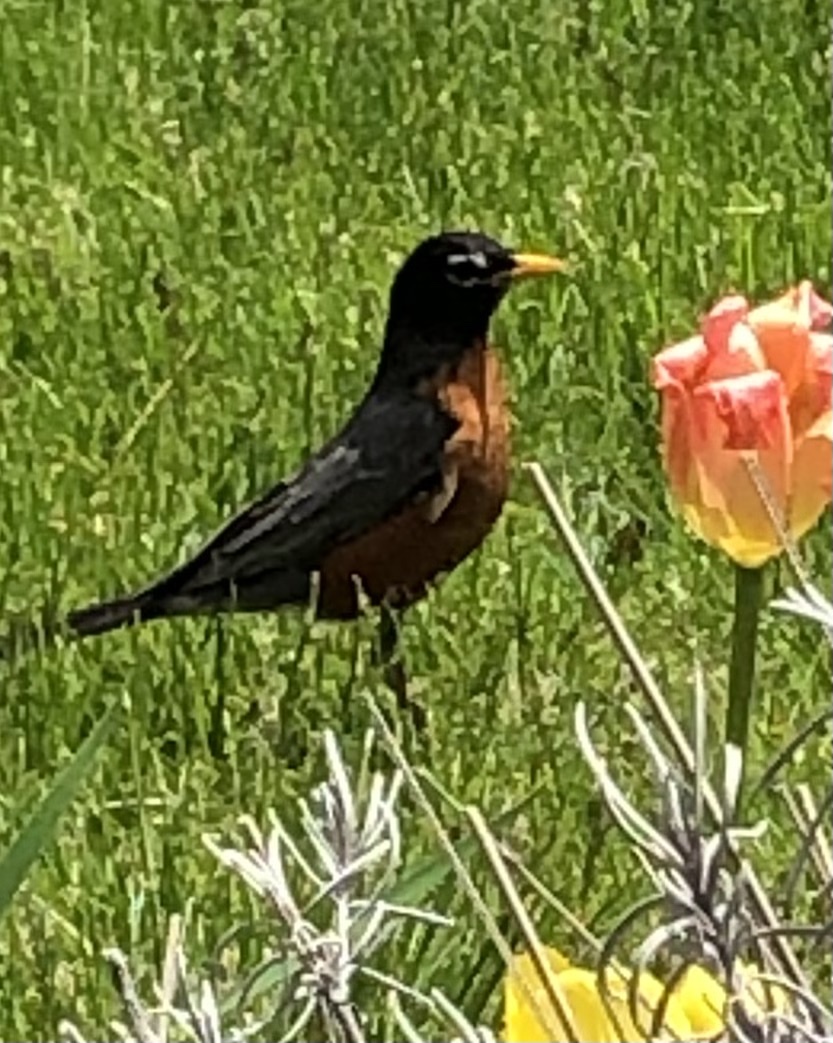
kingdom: Animalia
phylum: Chordata
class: Aves
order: Passeriformes
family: Turdidae
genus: Turdus
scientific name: Turdus migratorius
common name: American robin
